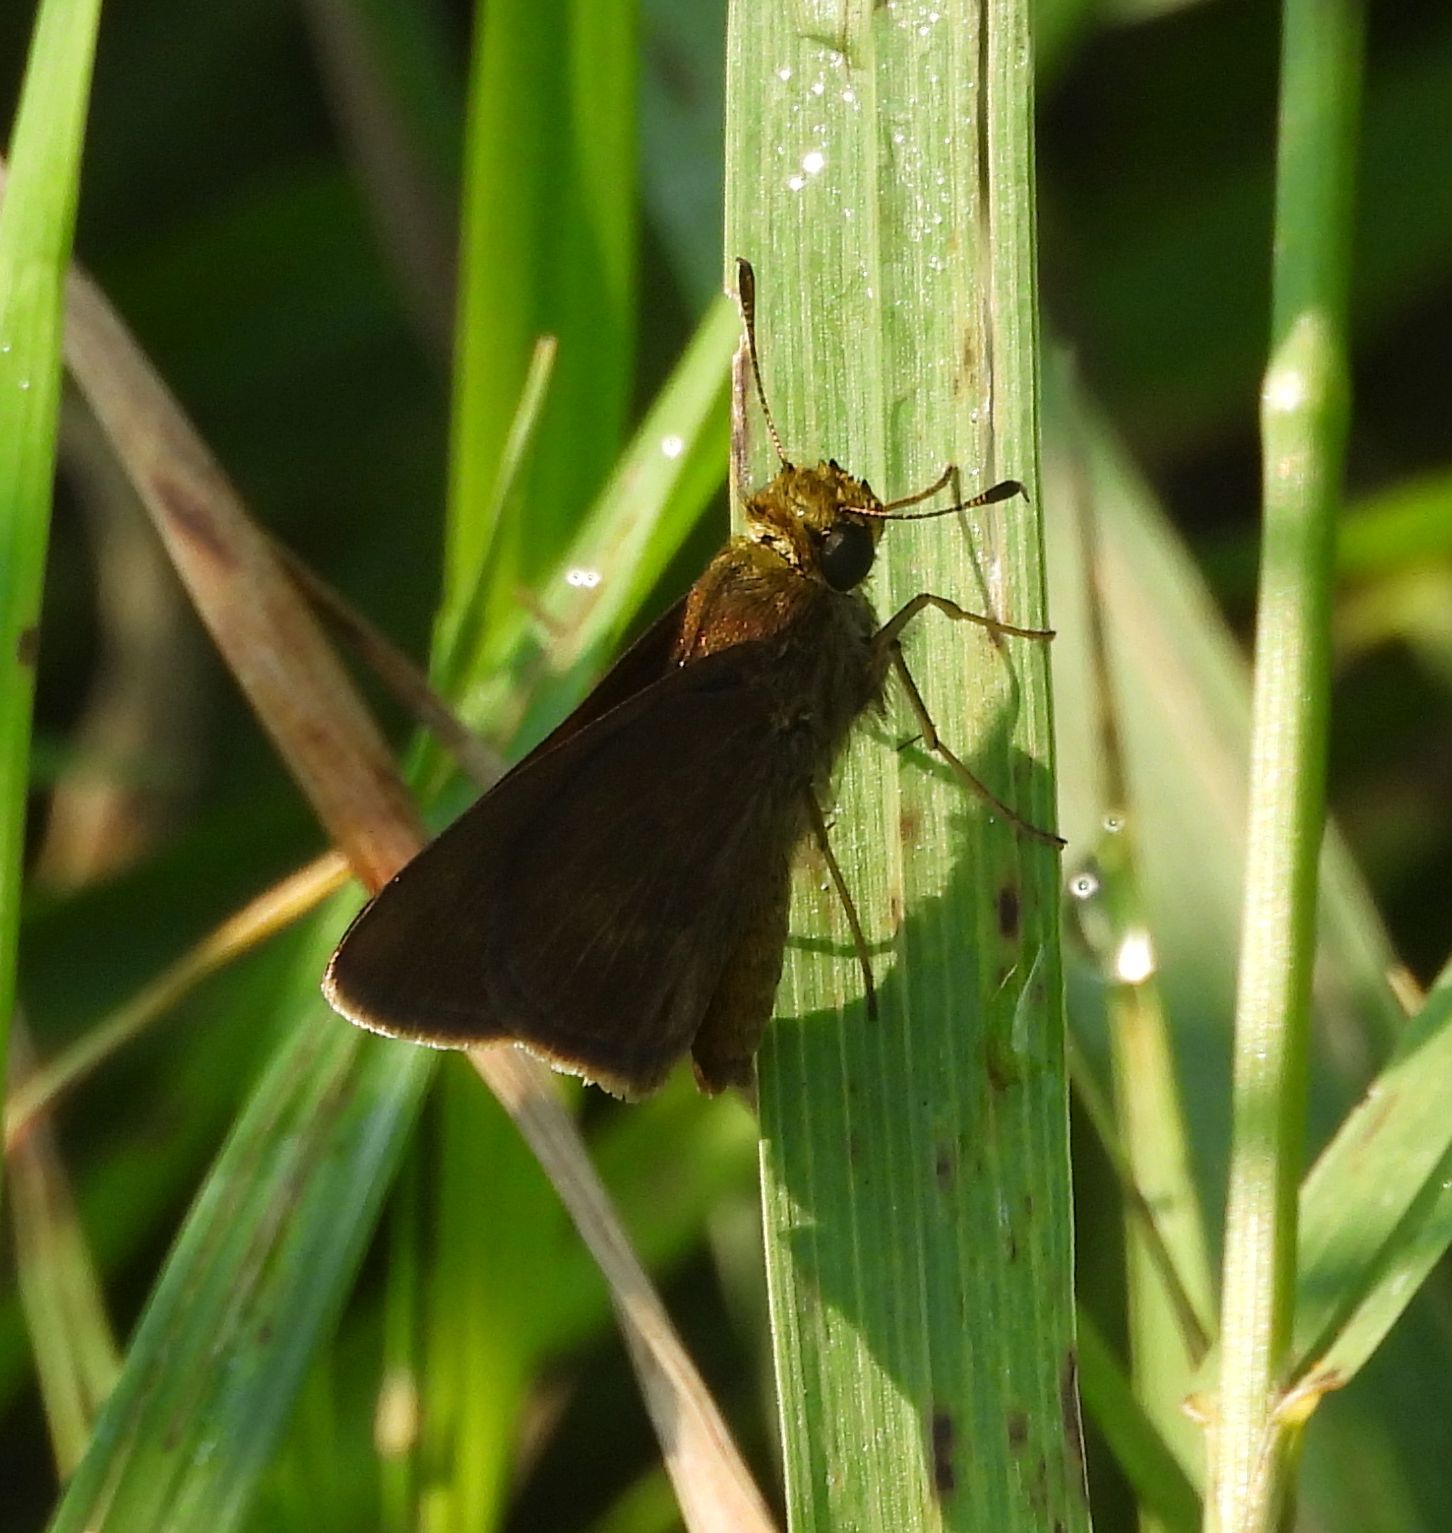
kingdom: Animalia
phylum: Arthropoda
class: Insecta
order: Lepidoptera
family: Hesperiidae
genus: Euphyes
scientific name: Euphyes vestris
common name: Dun skipper
